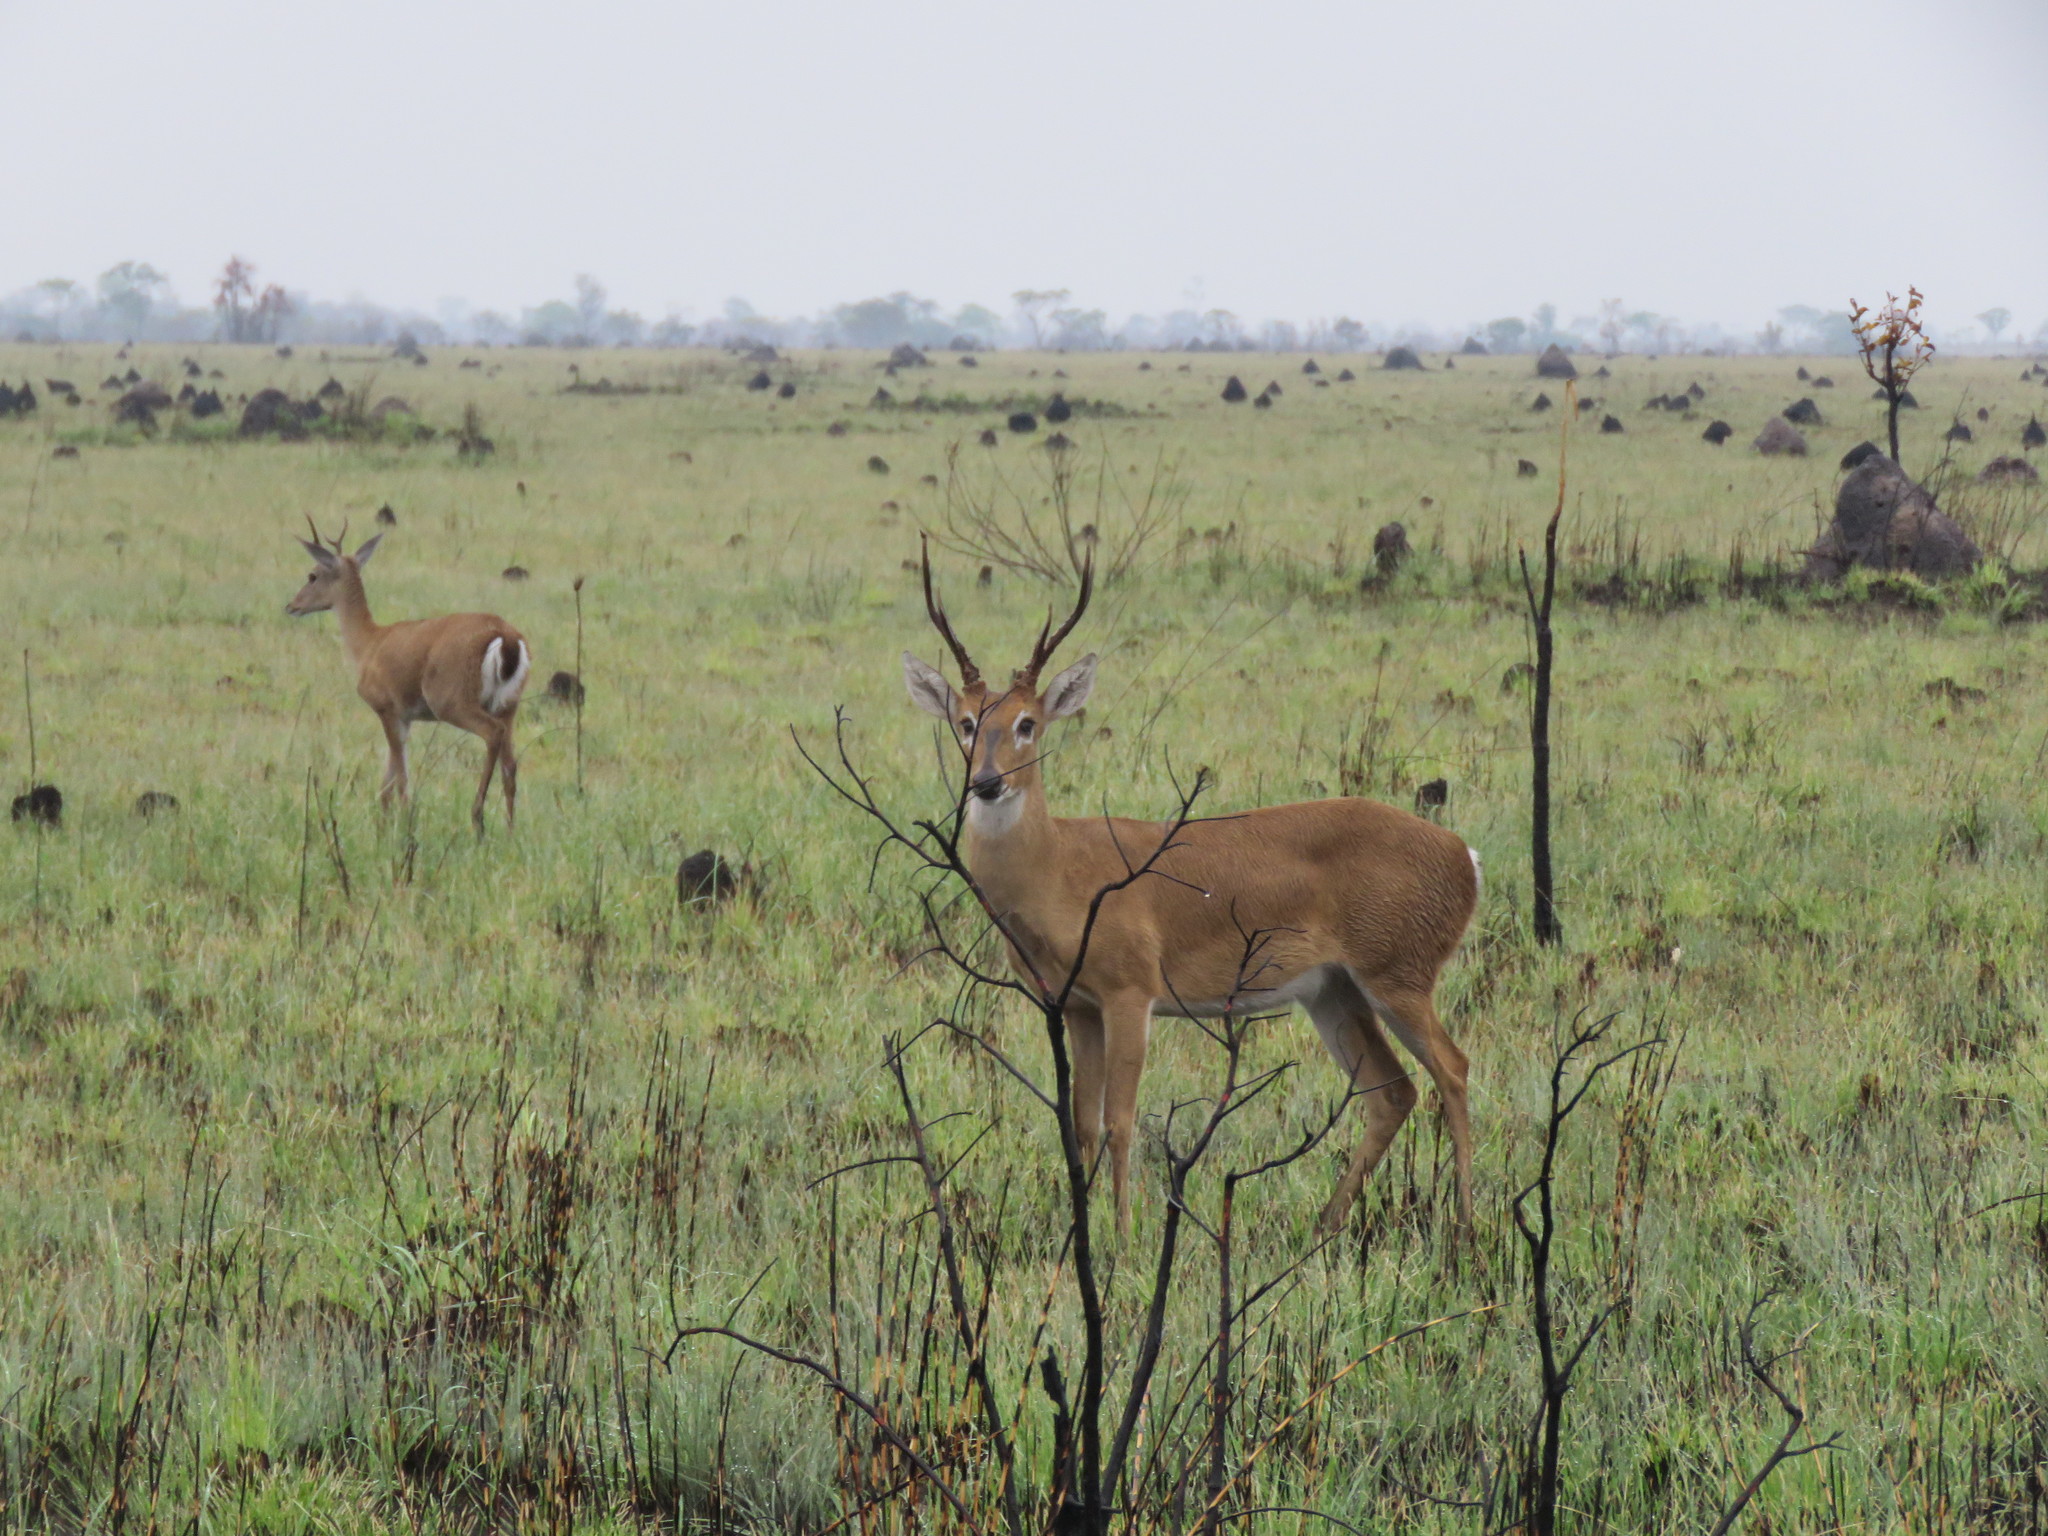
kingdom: Animalia
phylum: Chordata
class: Mammalia
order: Artiodactyla
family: Cervidae
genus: Ozotoceros
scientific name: Ozotoceros bezoarticus
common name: Pampas deer
